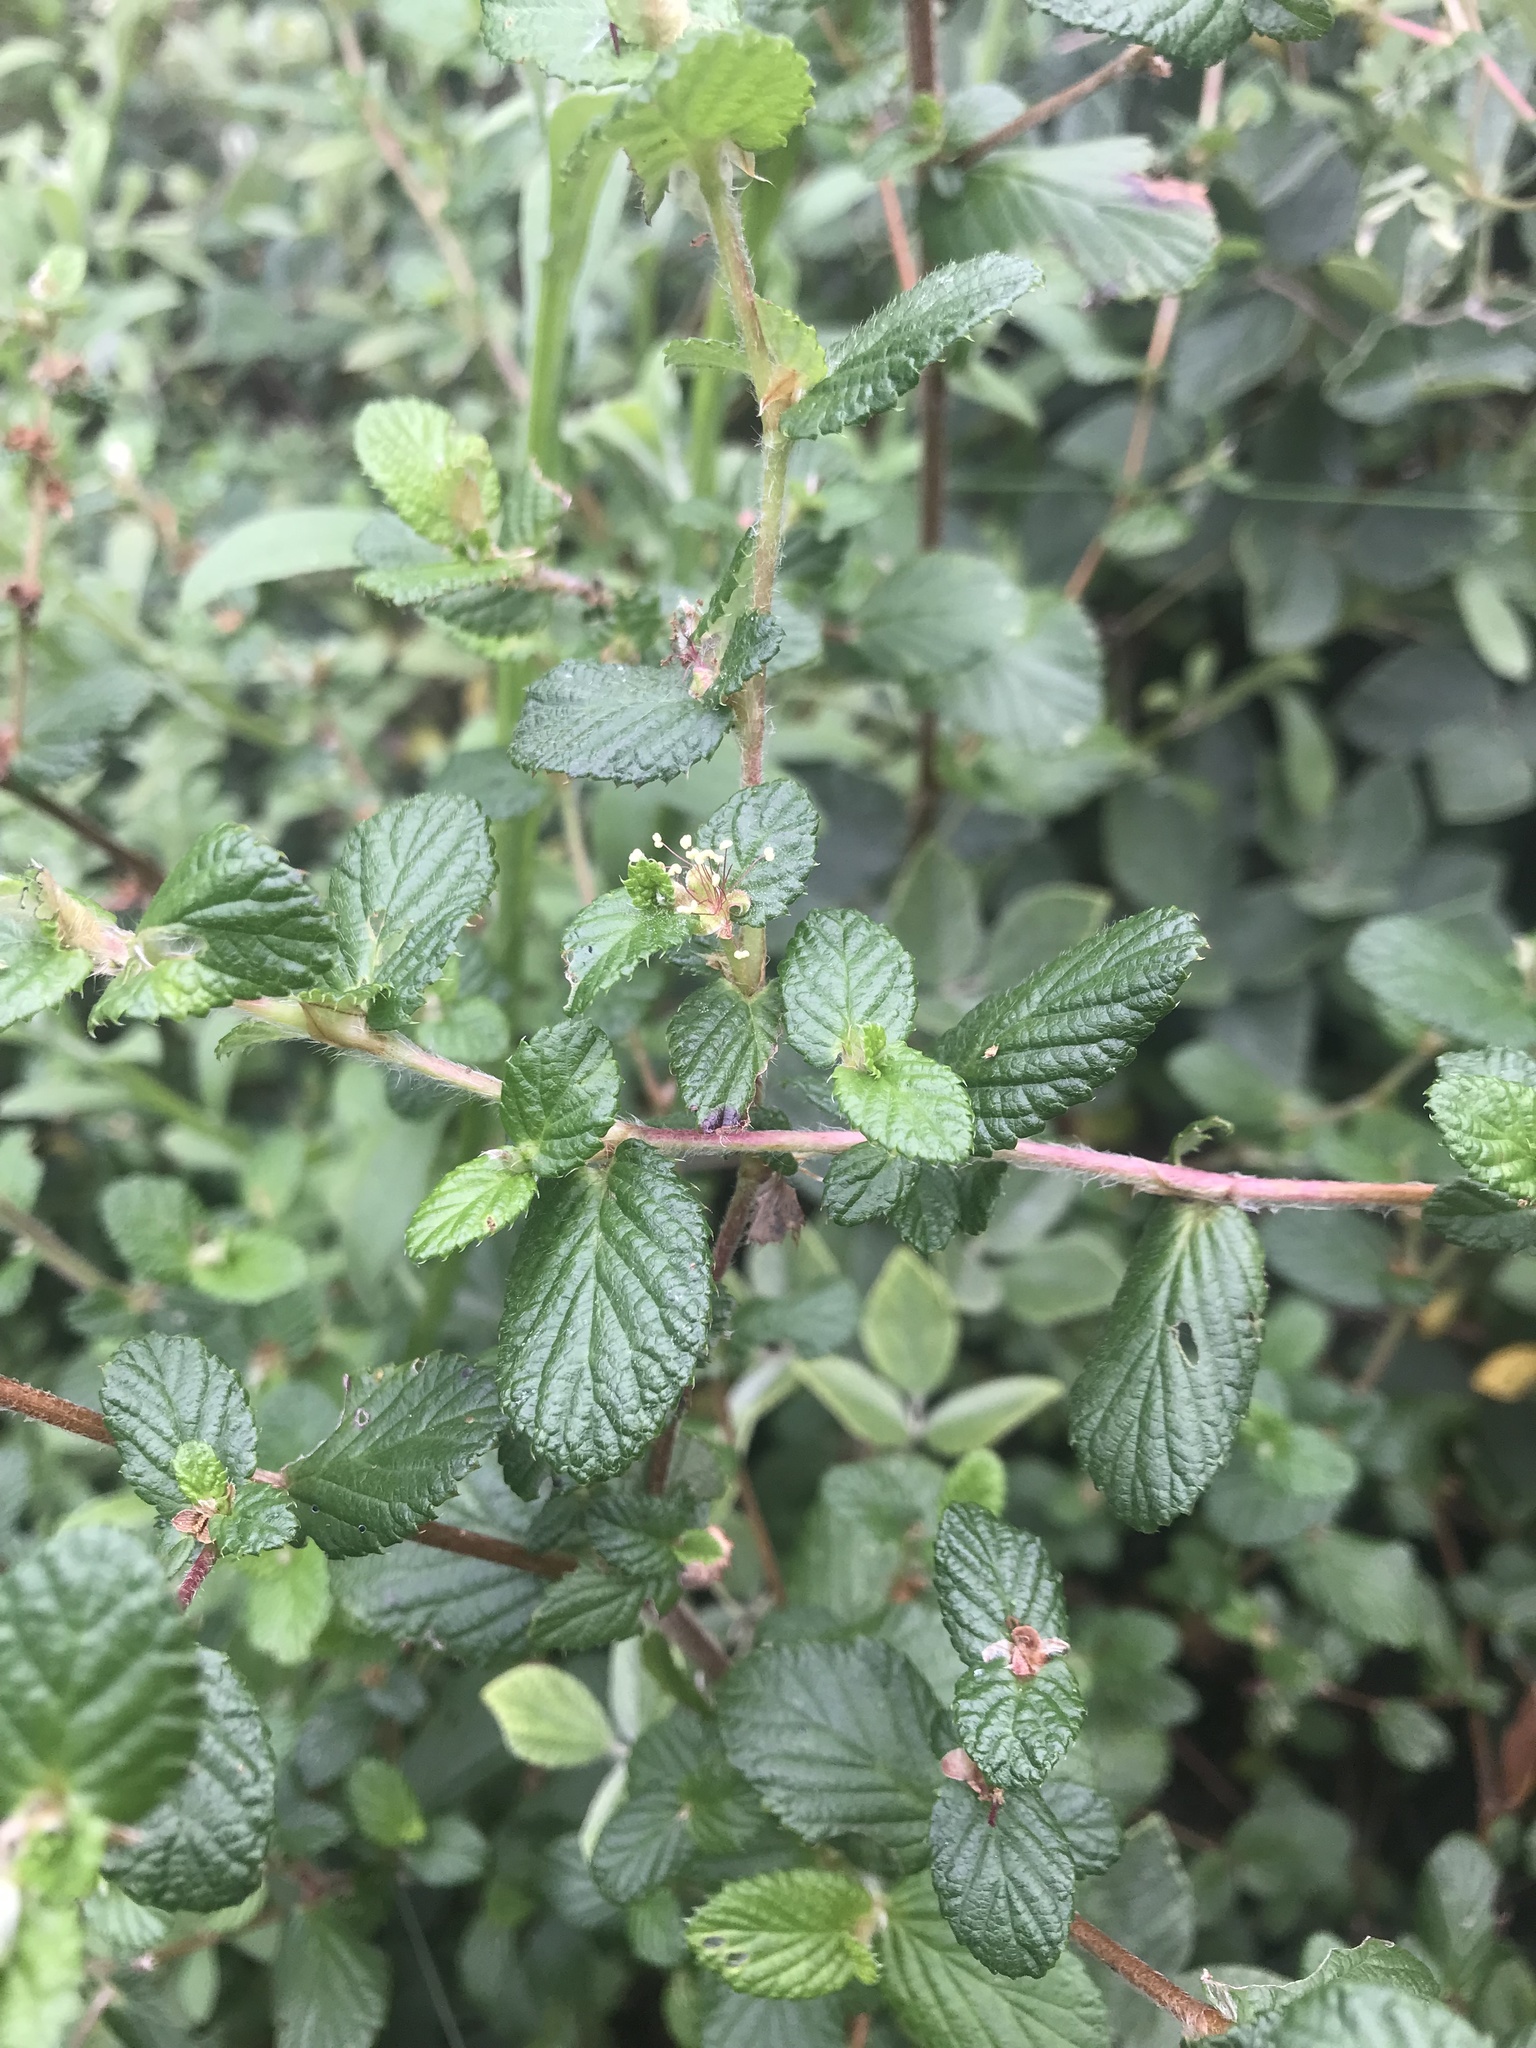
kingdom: Plantae
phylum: Tracheophyta
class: Magnoliopsida
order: Rosales
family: Rosaceae
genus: Cliffortia
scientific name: Cliffortia odorata
